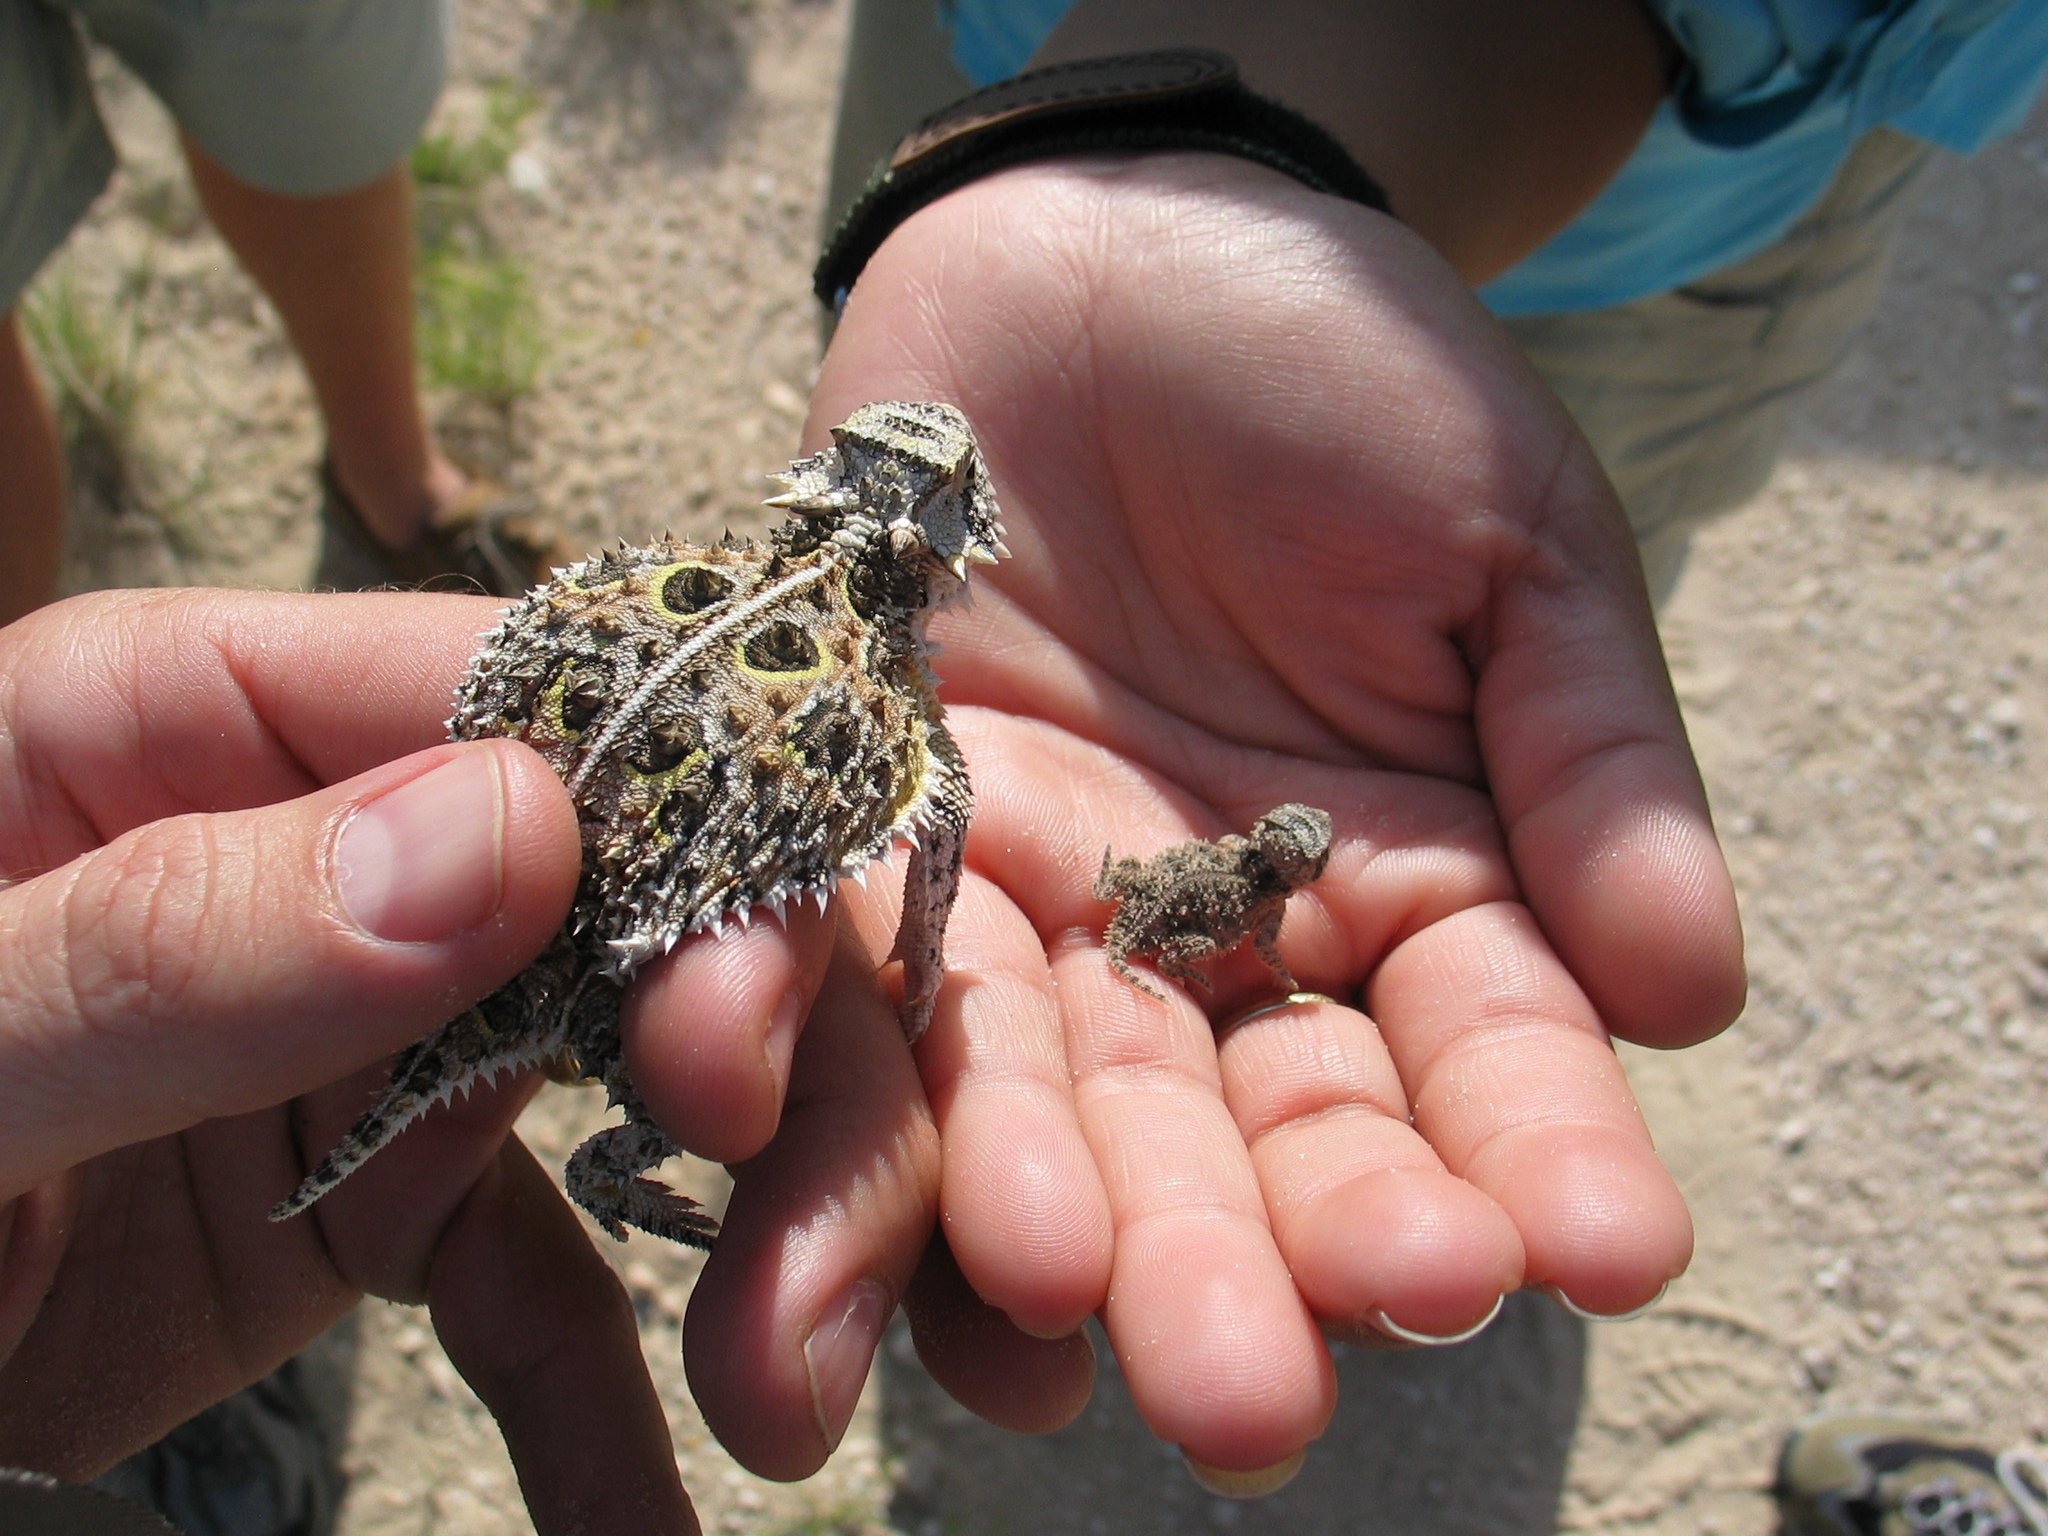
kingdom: Animalia
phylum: Chordata
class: Squamata
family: Phrynosomatidae
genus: Phrynosoma
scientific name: Phrynosoma cornutum
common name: Texas horned lizard
